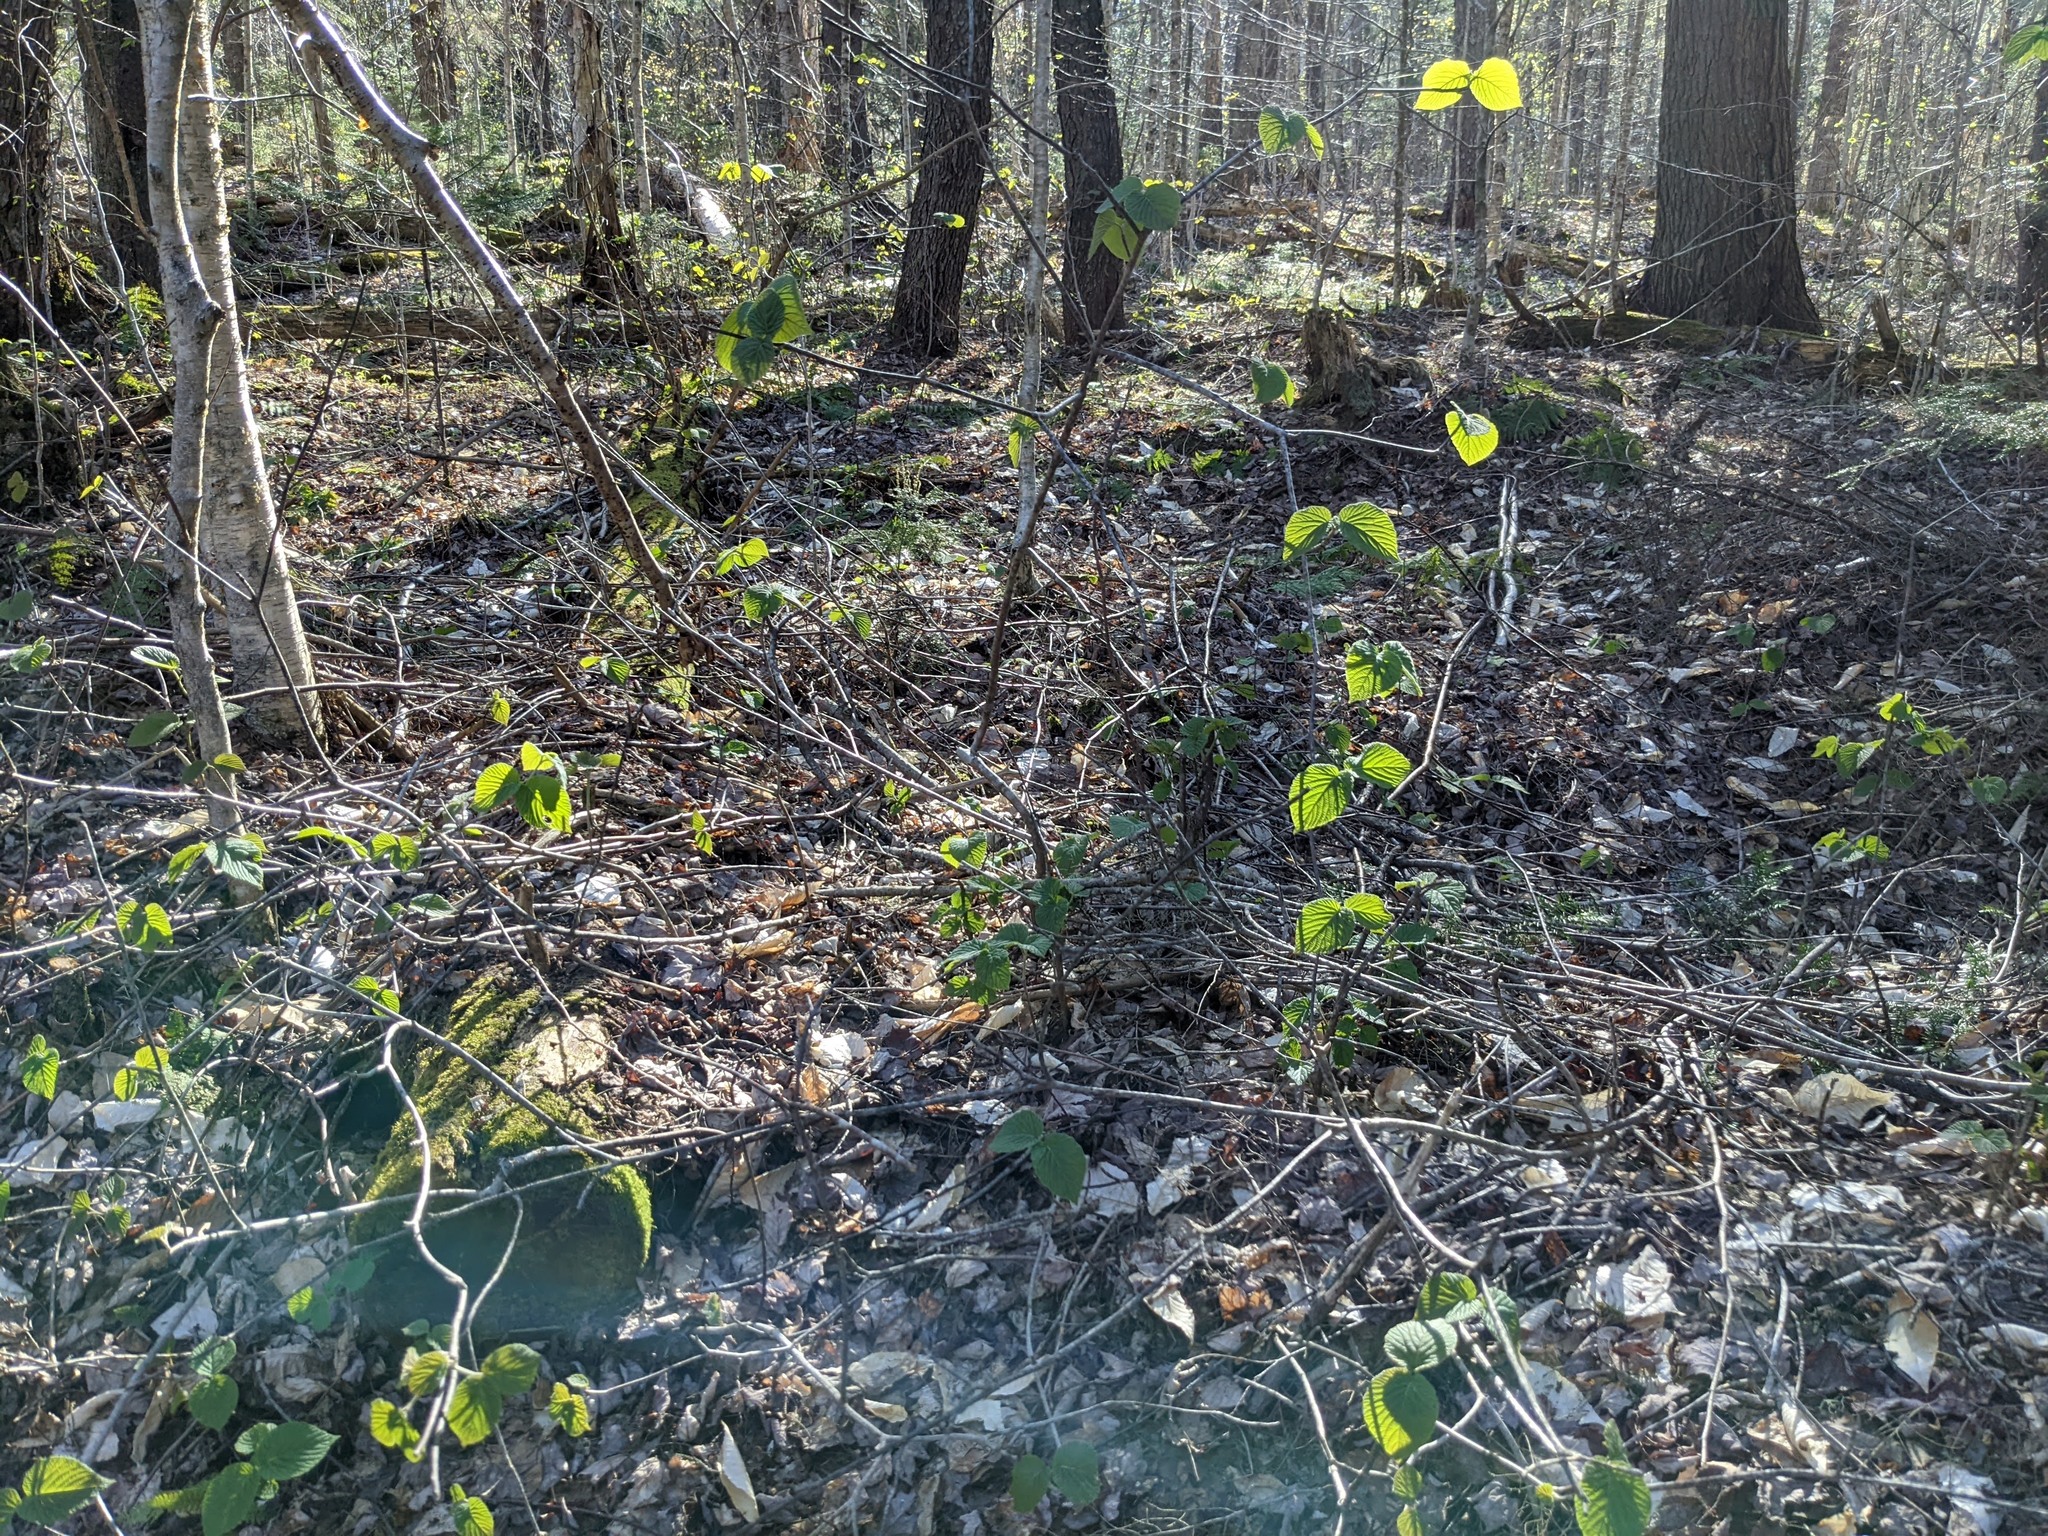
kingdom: Plantae
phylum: Tracheophyta
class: Magnoliopsida
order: Dipsacales
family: Viburnaceae
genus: Viburnum
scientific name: Viburnum lantanoides
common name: Hobblebush
